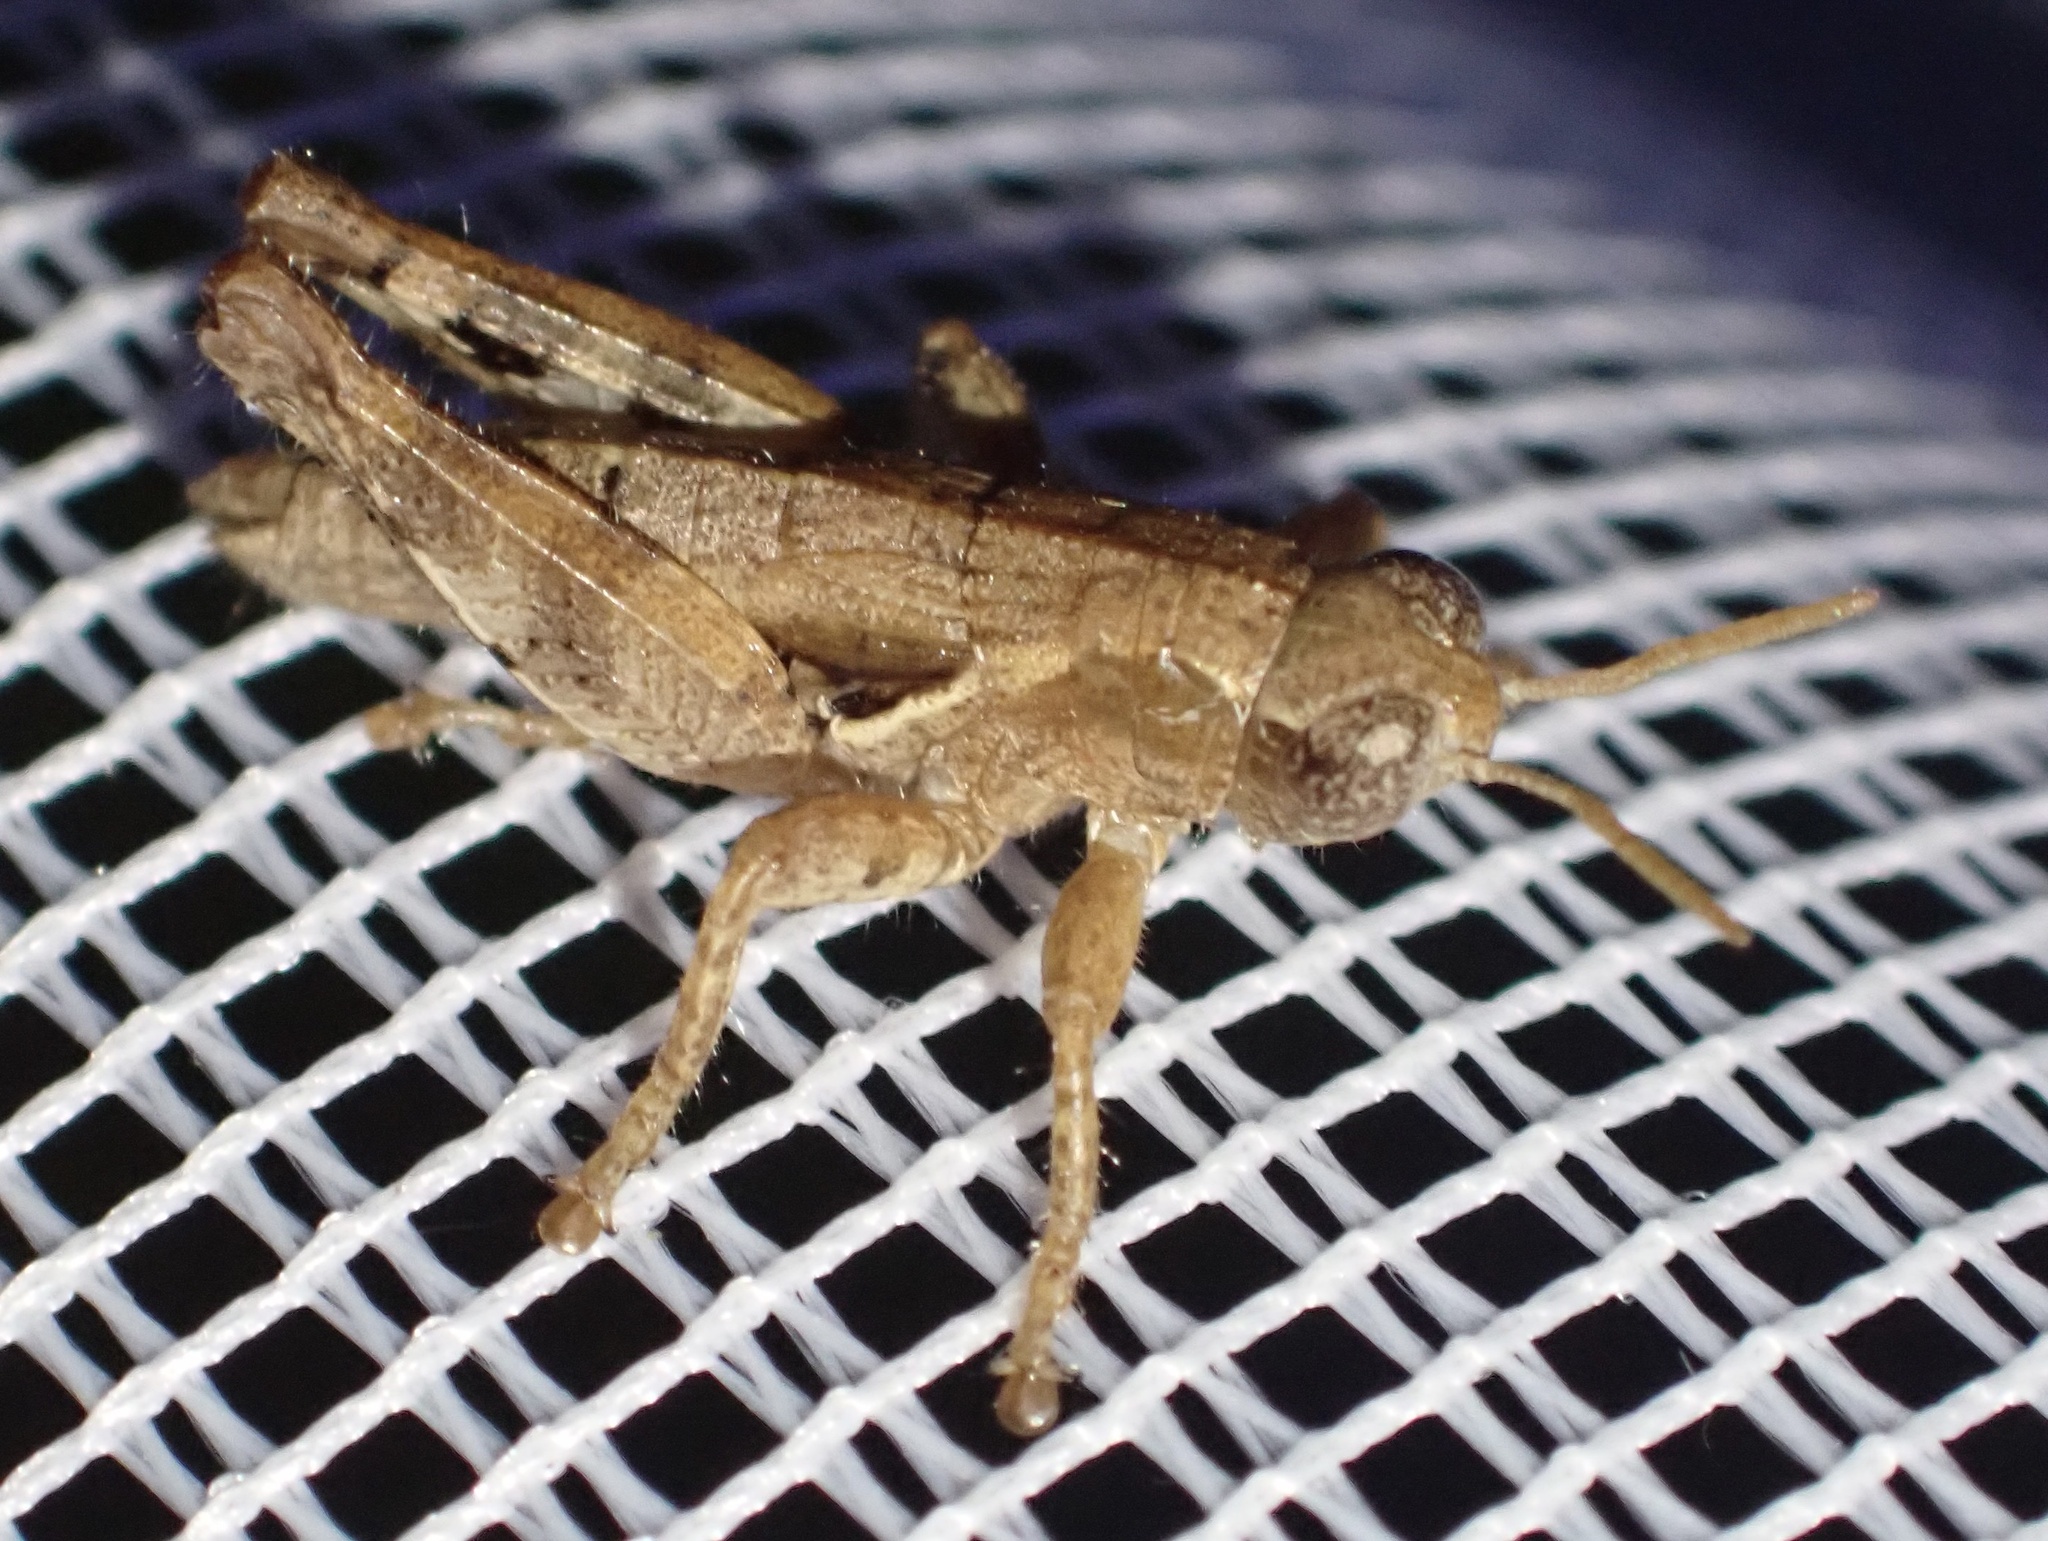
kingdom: Animalia
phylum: Arthropoda
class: Insecta
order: Orthoptera
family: Acrididae
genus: Pezotettix
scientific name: Pezotettix giornae
